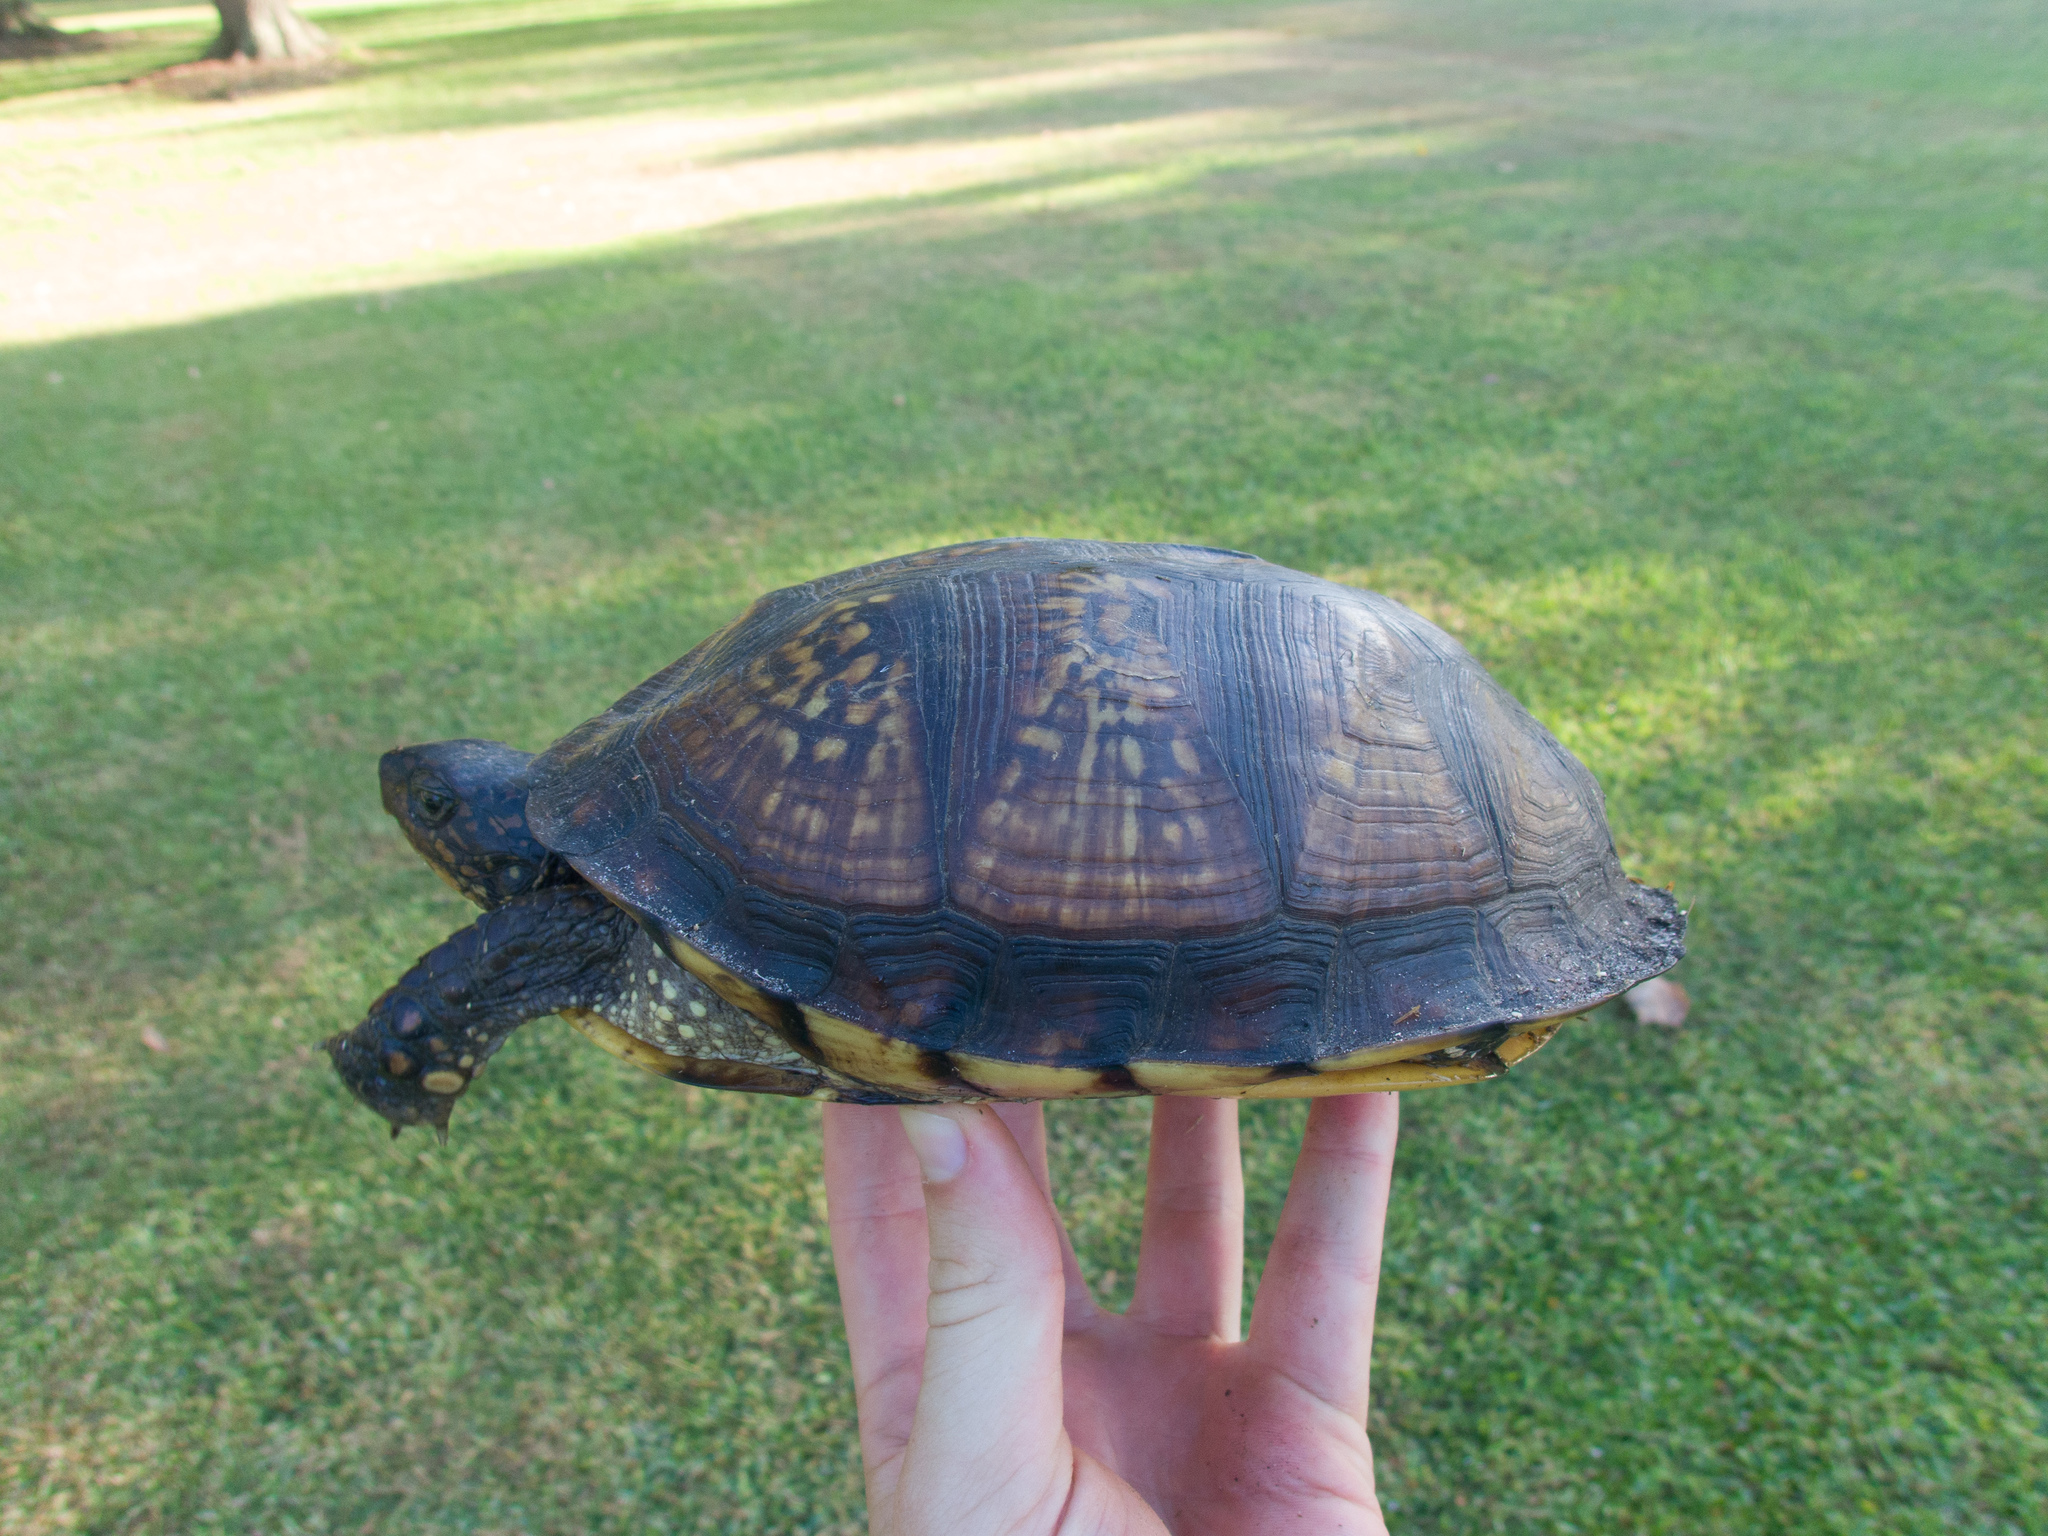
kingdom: Animalia
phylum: Chordata
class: Testudines
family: Emydidae
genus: Terrapene
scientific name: Terrapene carolina
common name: Common box turtle
